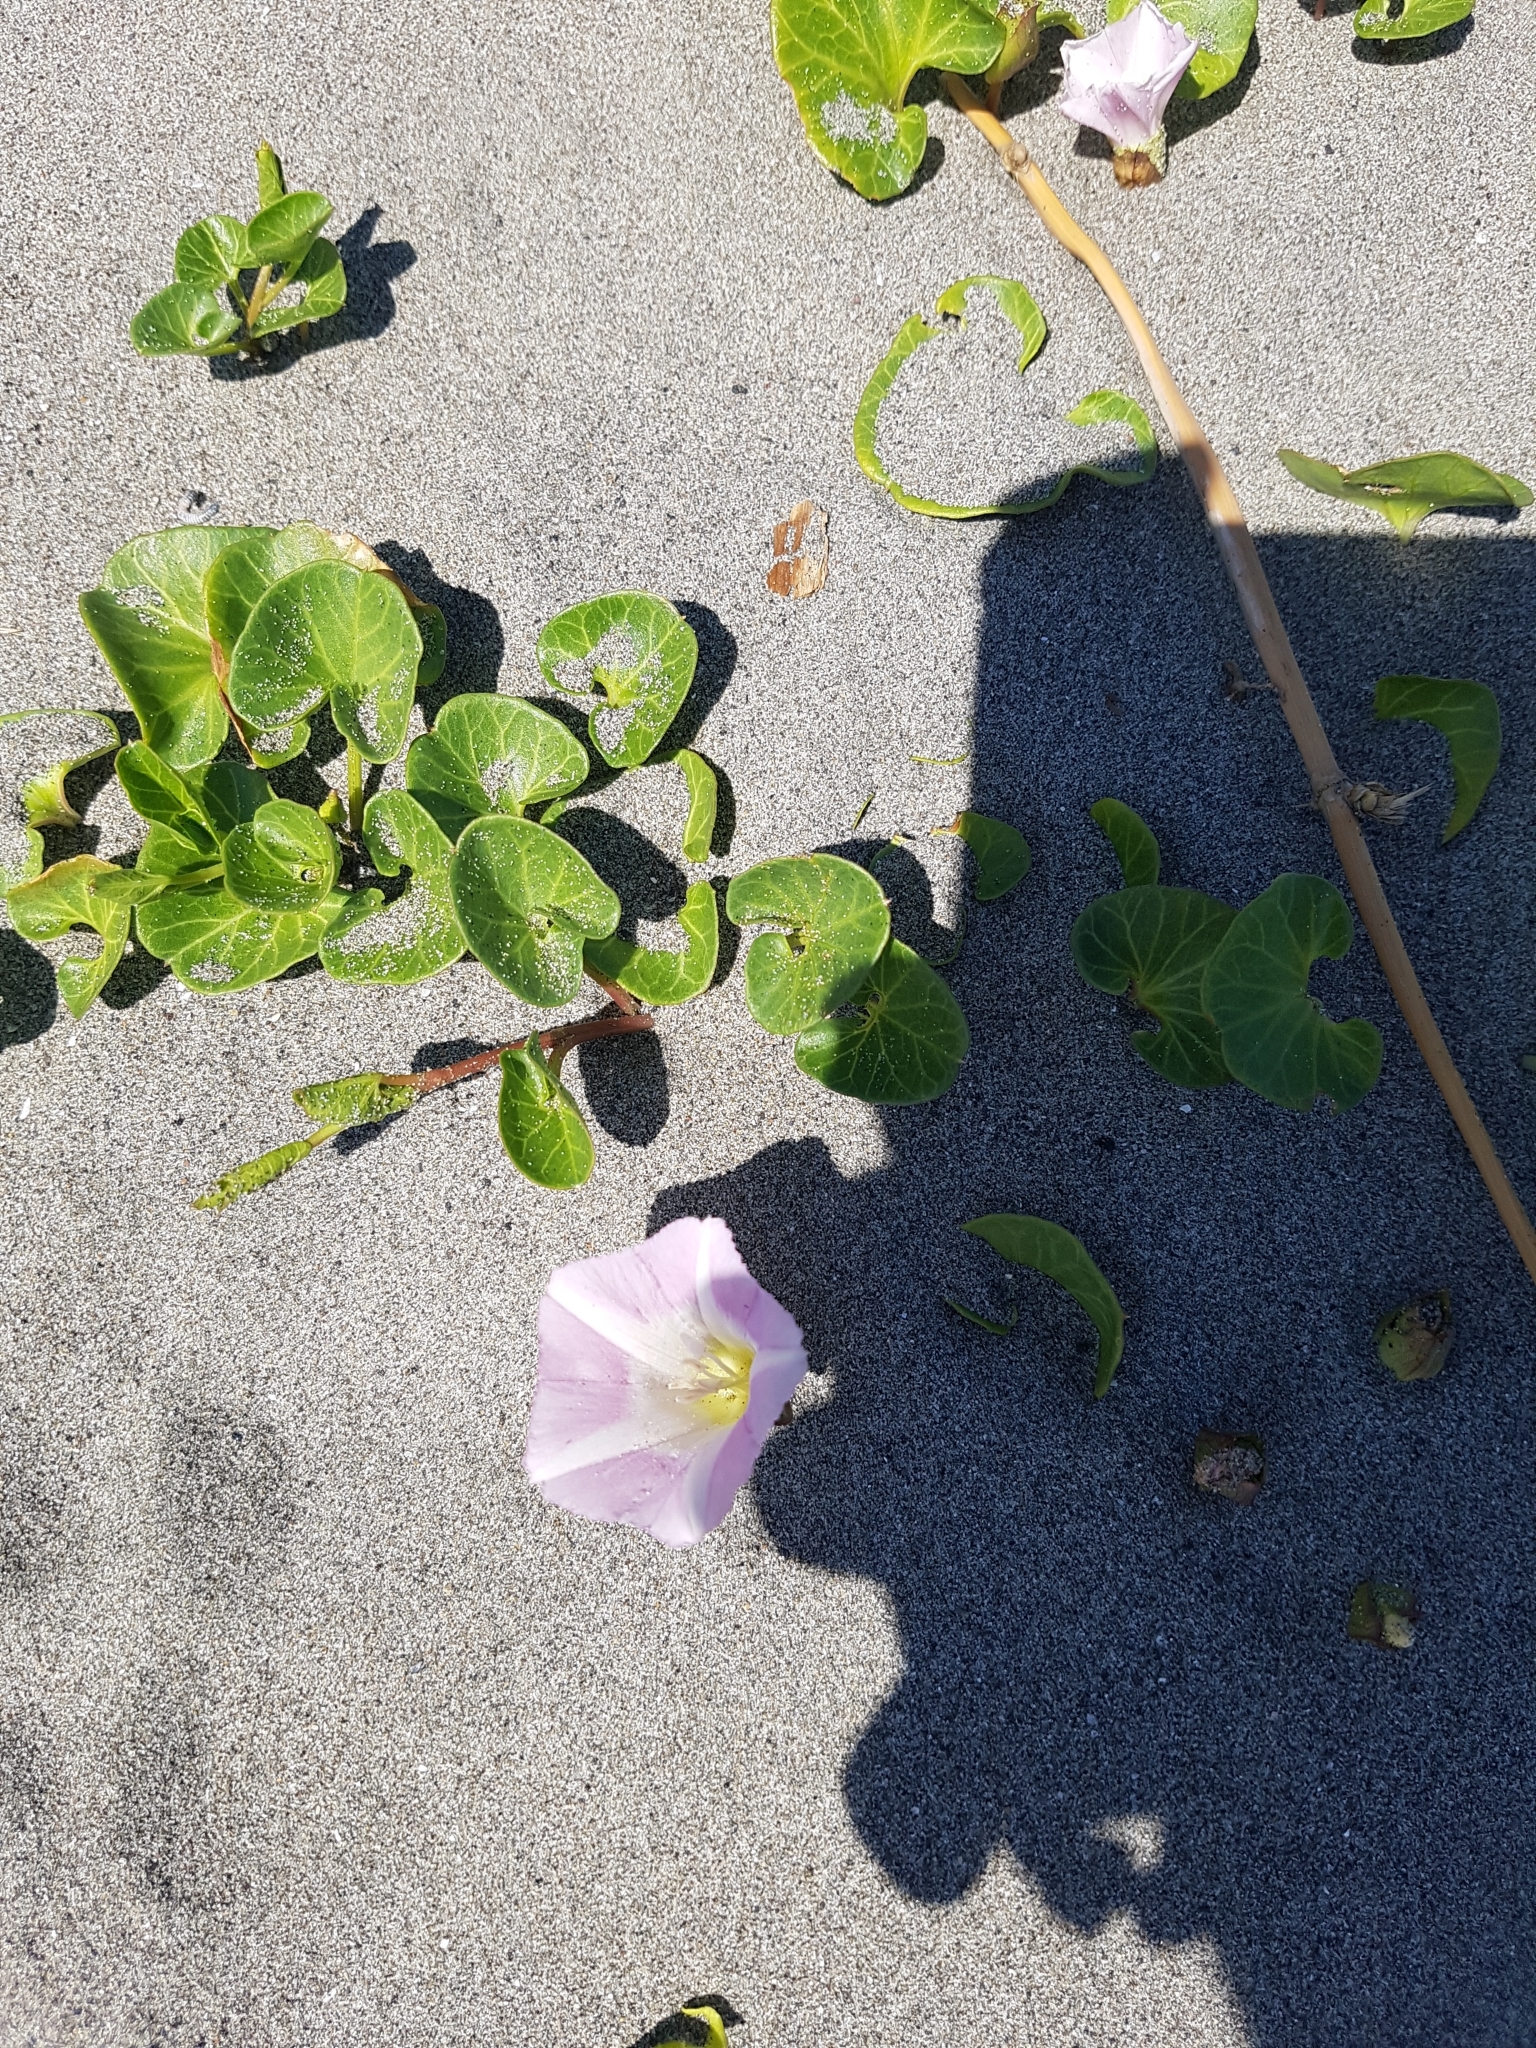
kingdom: Plantae
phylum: Tracheophyta
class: Magnoliopsida
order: Solanales
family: Convolvulaceae
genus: Calystegia
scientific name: Calystegia soldanella
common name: Sea bindweed
